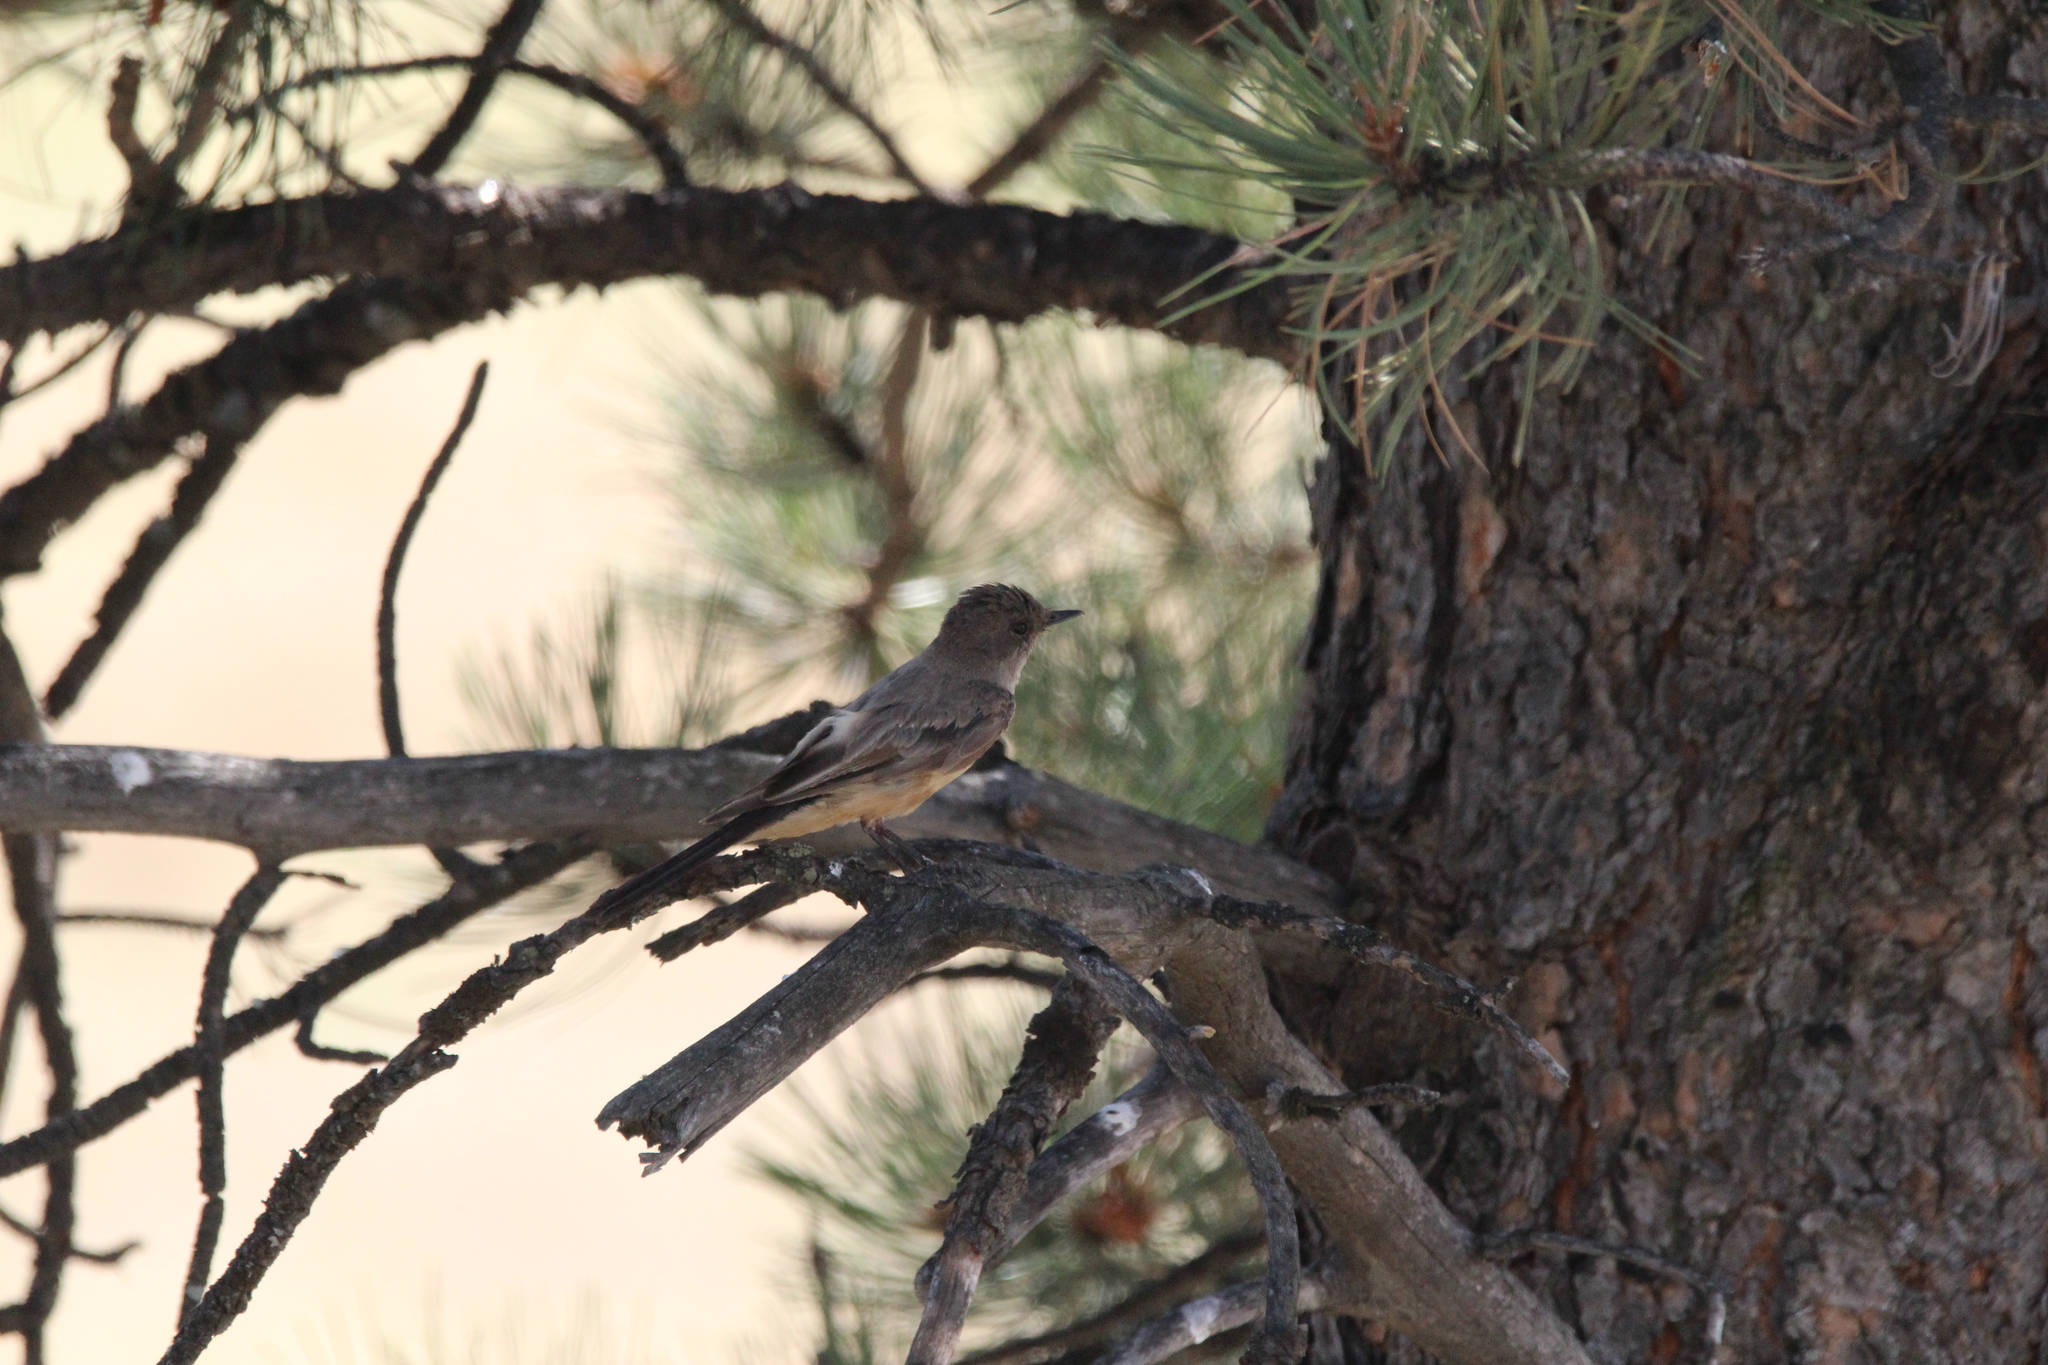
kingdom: Animalia
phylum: Chordata
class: Aves
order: Passeriformes
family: Tyrannidae
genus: Sayornis
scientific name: Sayornis saya
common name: Say's phoebe
